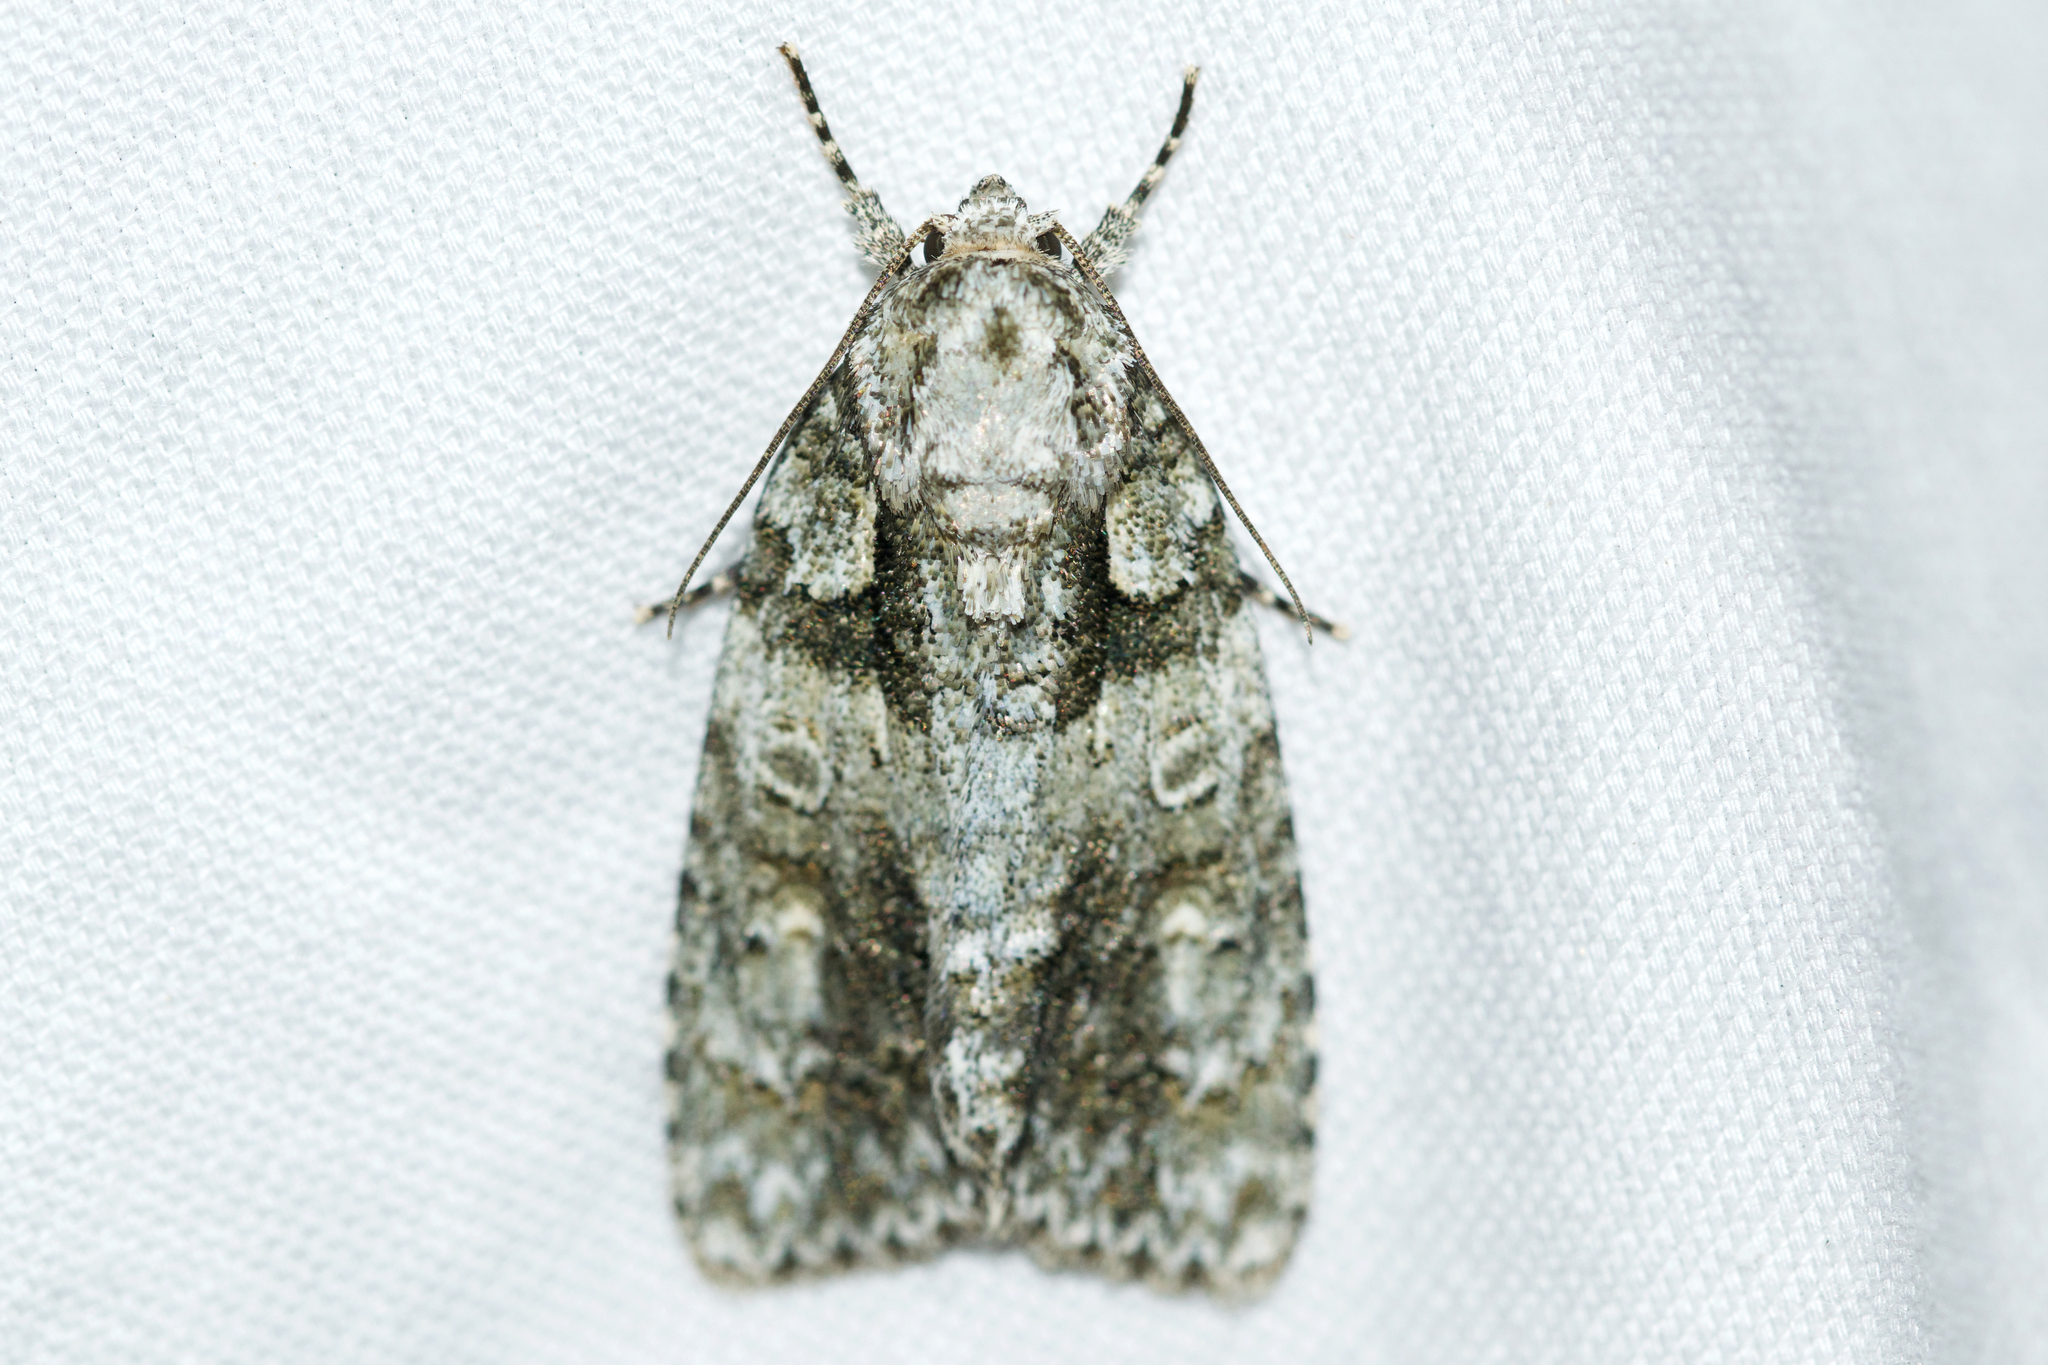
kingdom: Animalia
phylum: Arthropoda
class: Insecta
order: Lepidoptera
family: Noctuidae
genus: Acronicta
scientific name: Acronicta increta
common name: Eclipsed oak dagger
